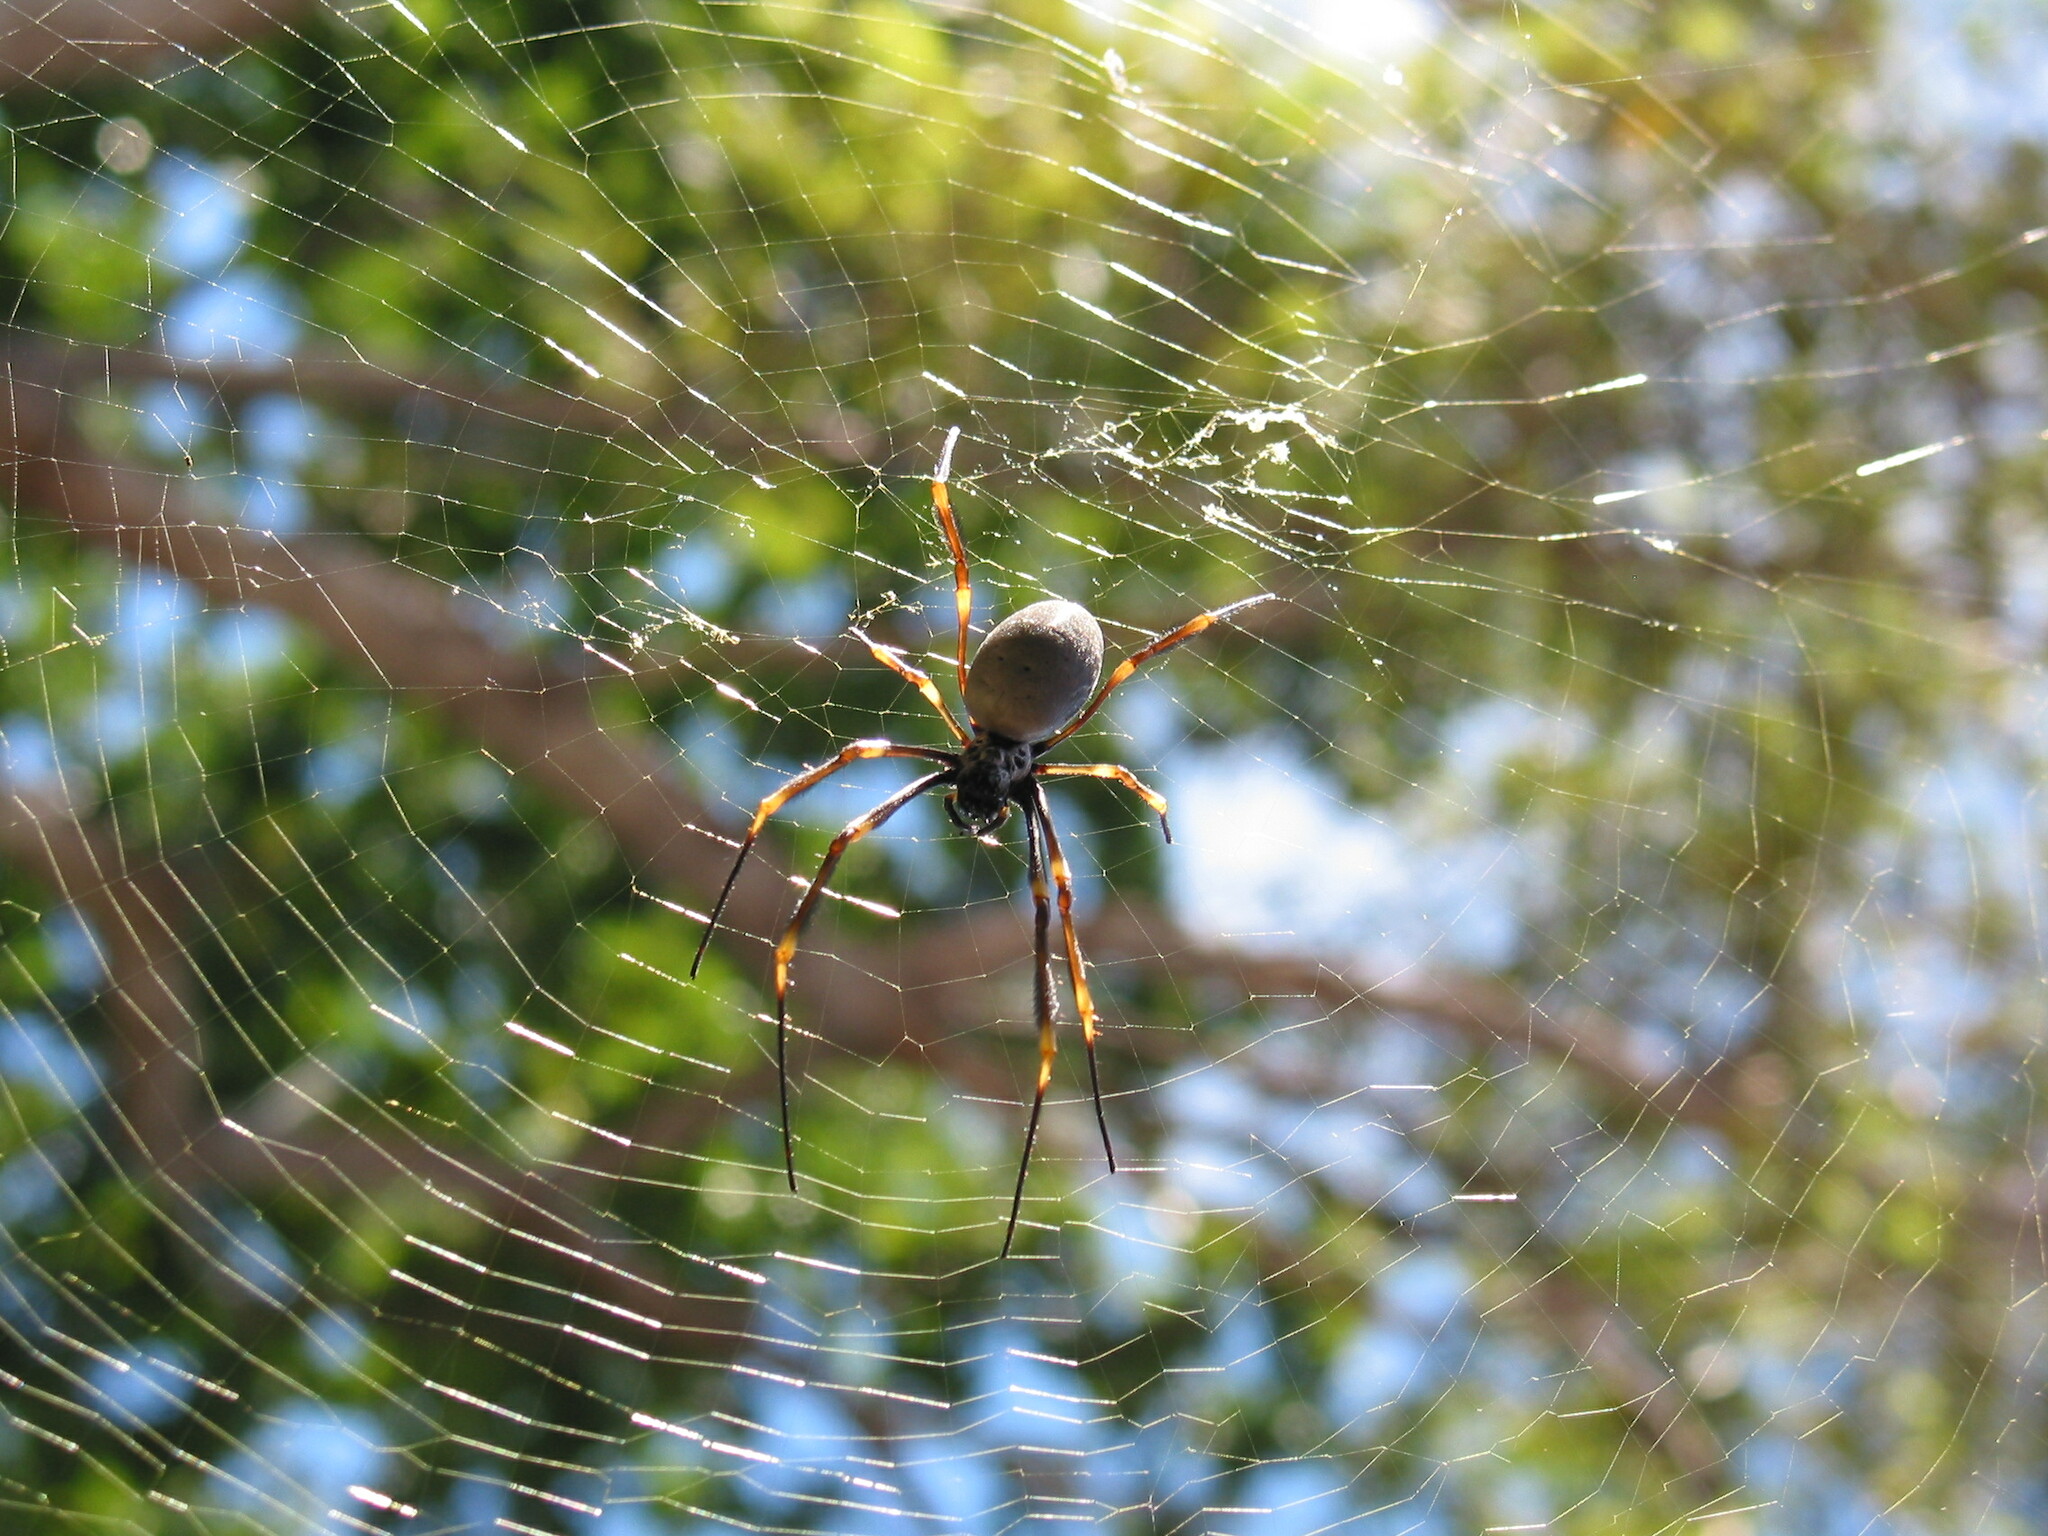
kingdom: Animalia
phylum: Arthropoda
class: Arachnida
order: Araneae
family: Araneidae
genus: Trichonephila
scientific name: Trichonephila plumipes
